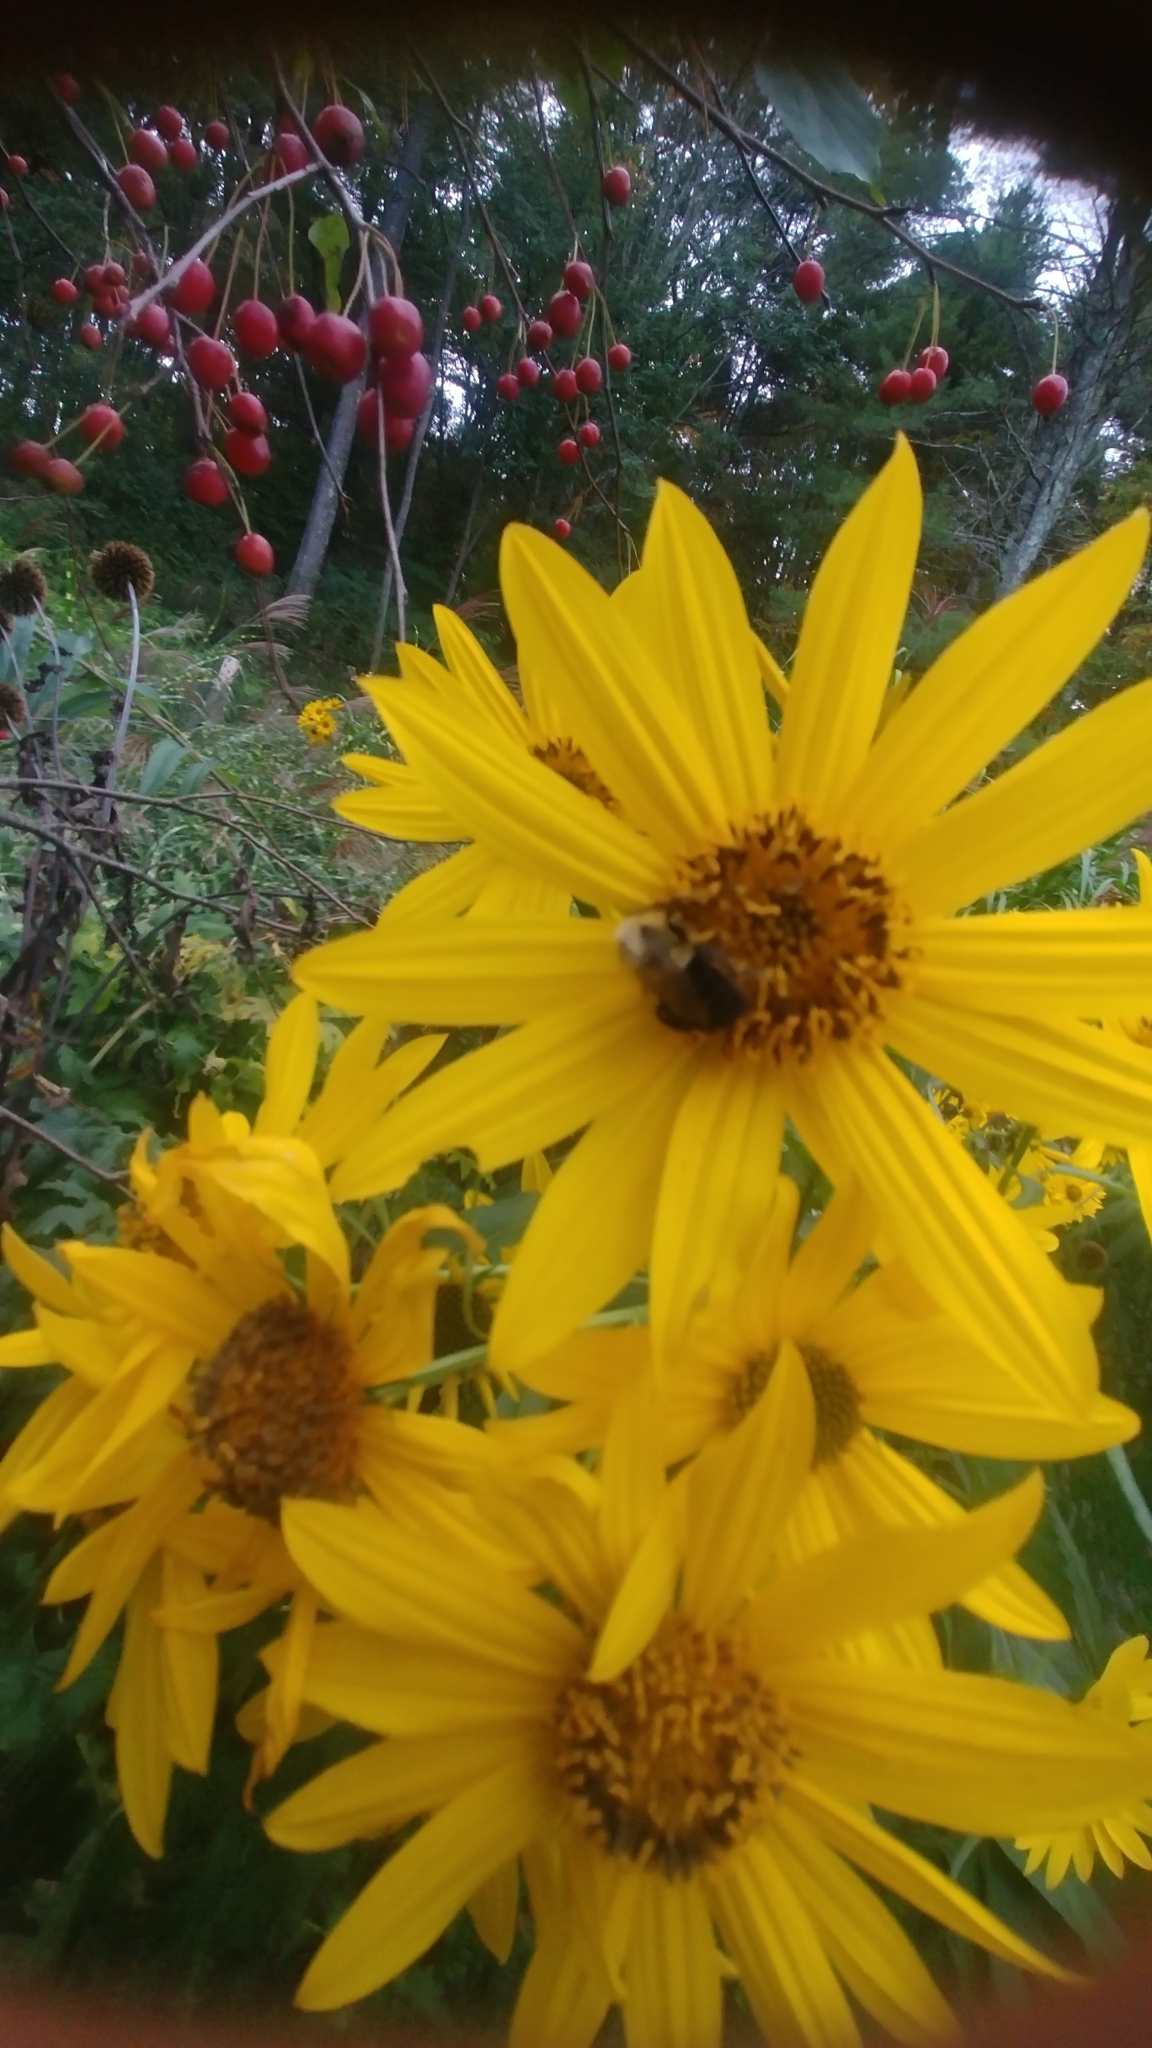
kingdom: Animalia
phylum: Arthropoda
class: Insecta
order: Hymenoptera
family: Apidae
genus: Bombus
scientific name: Bombus impatiens
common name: Common eastern bumble bee
